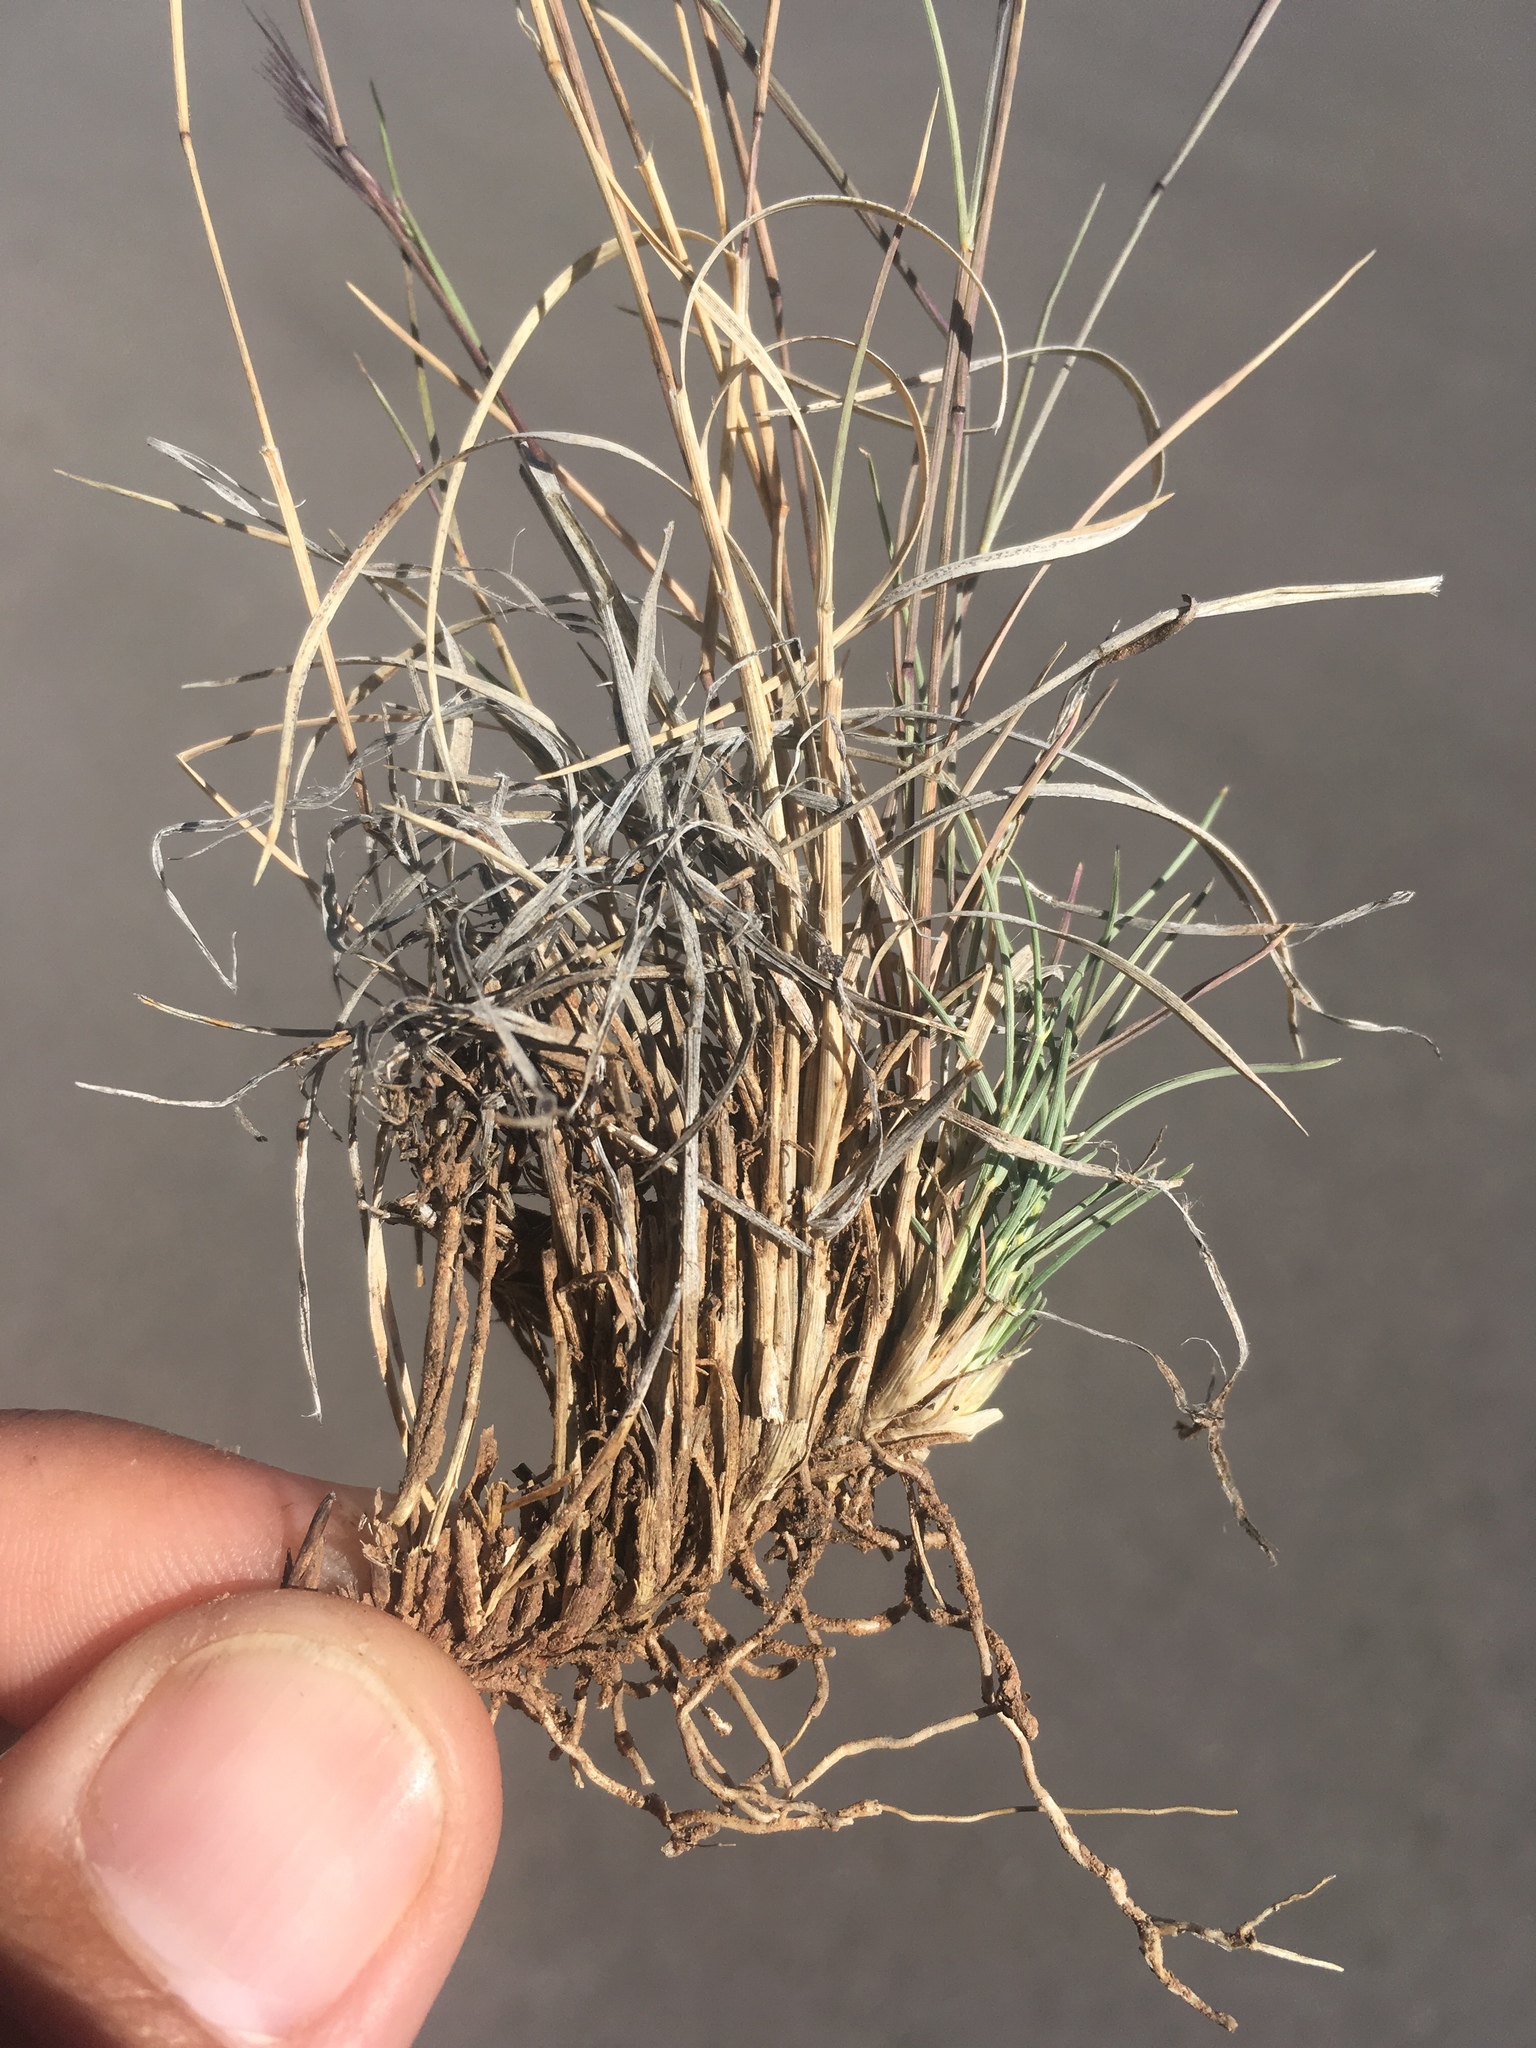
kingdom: Plantae
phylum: Tracheophyta
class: Liliopsida
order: Poales
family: Poaceae
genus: Bouteloua
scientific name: Bouteloua trifida
